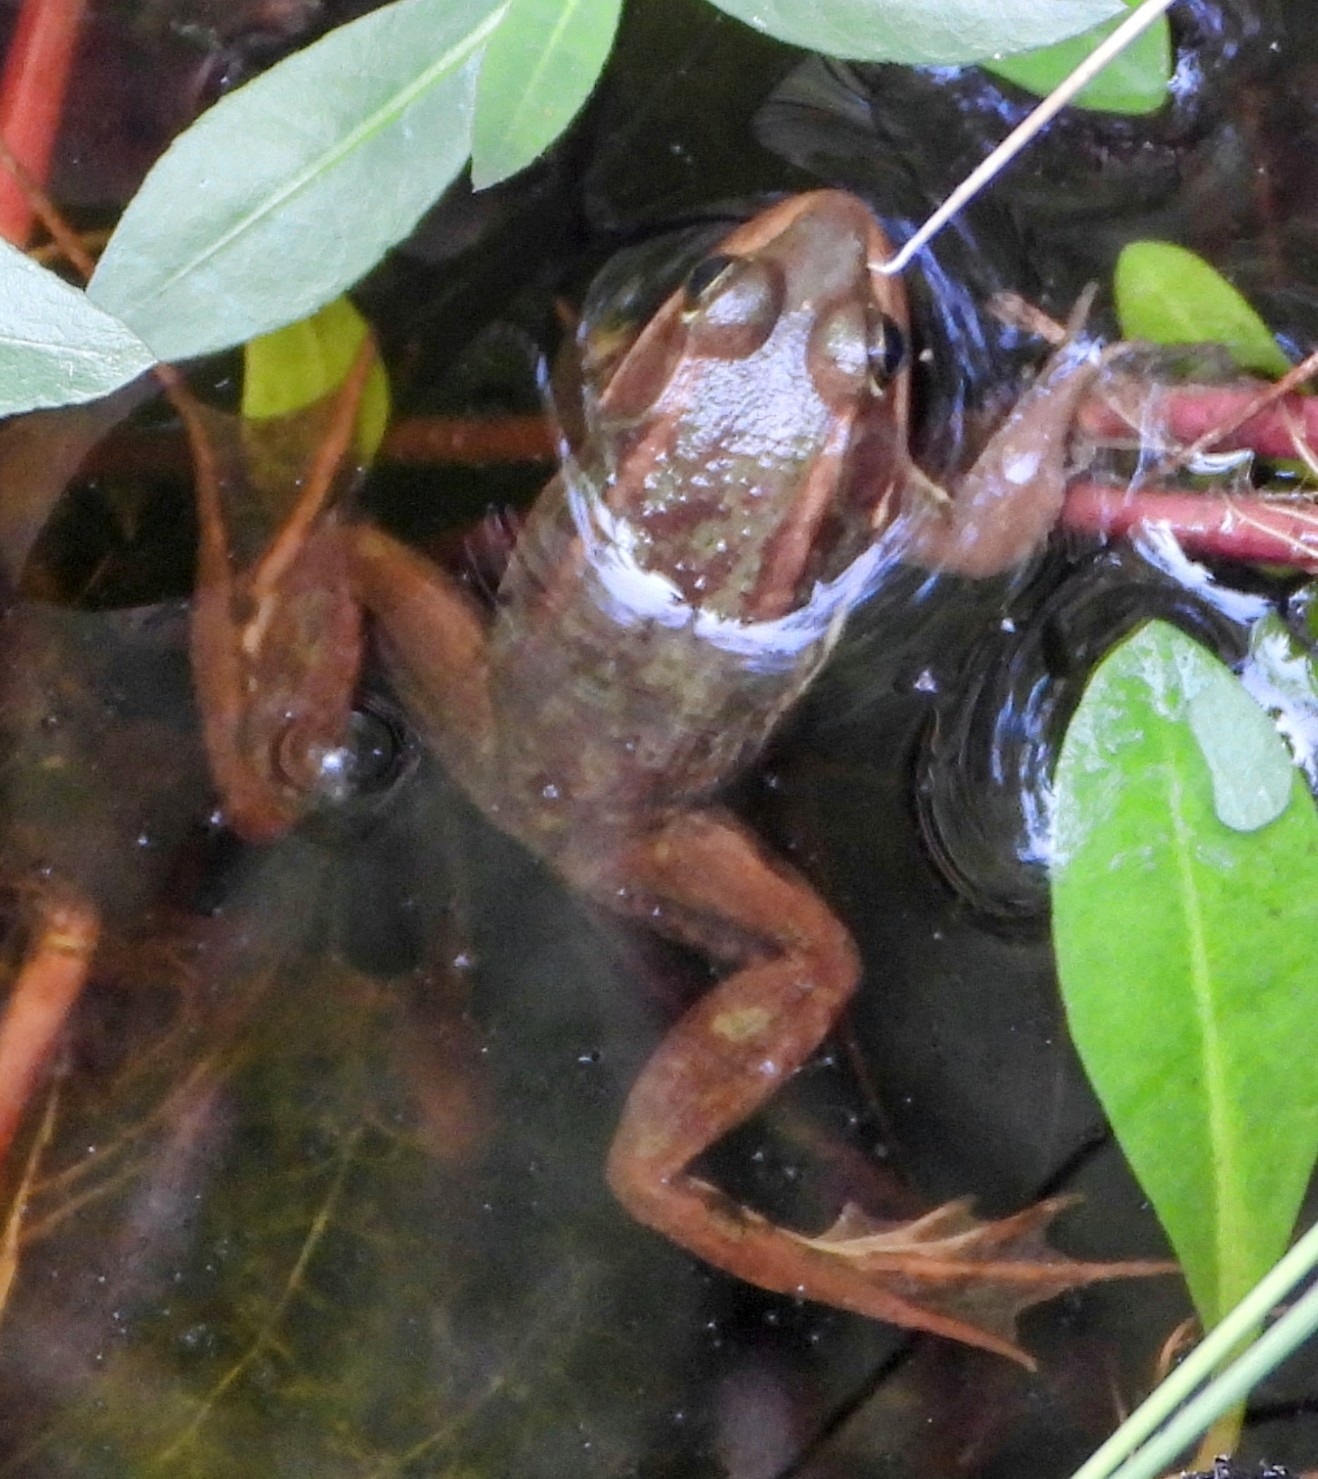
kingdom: Animalia
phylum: Chordata
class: Amphibia
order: Anura
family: Ranidae
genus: Lithobates
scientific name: Lithobates virgatipes
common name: Carpenter frog
